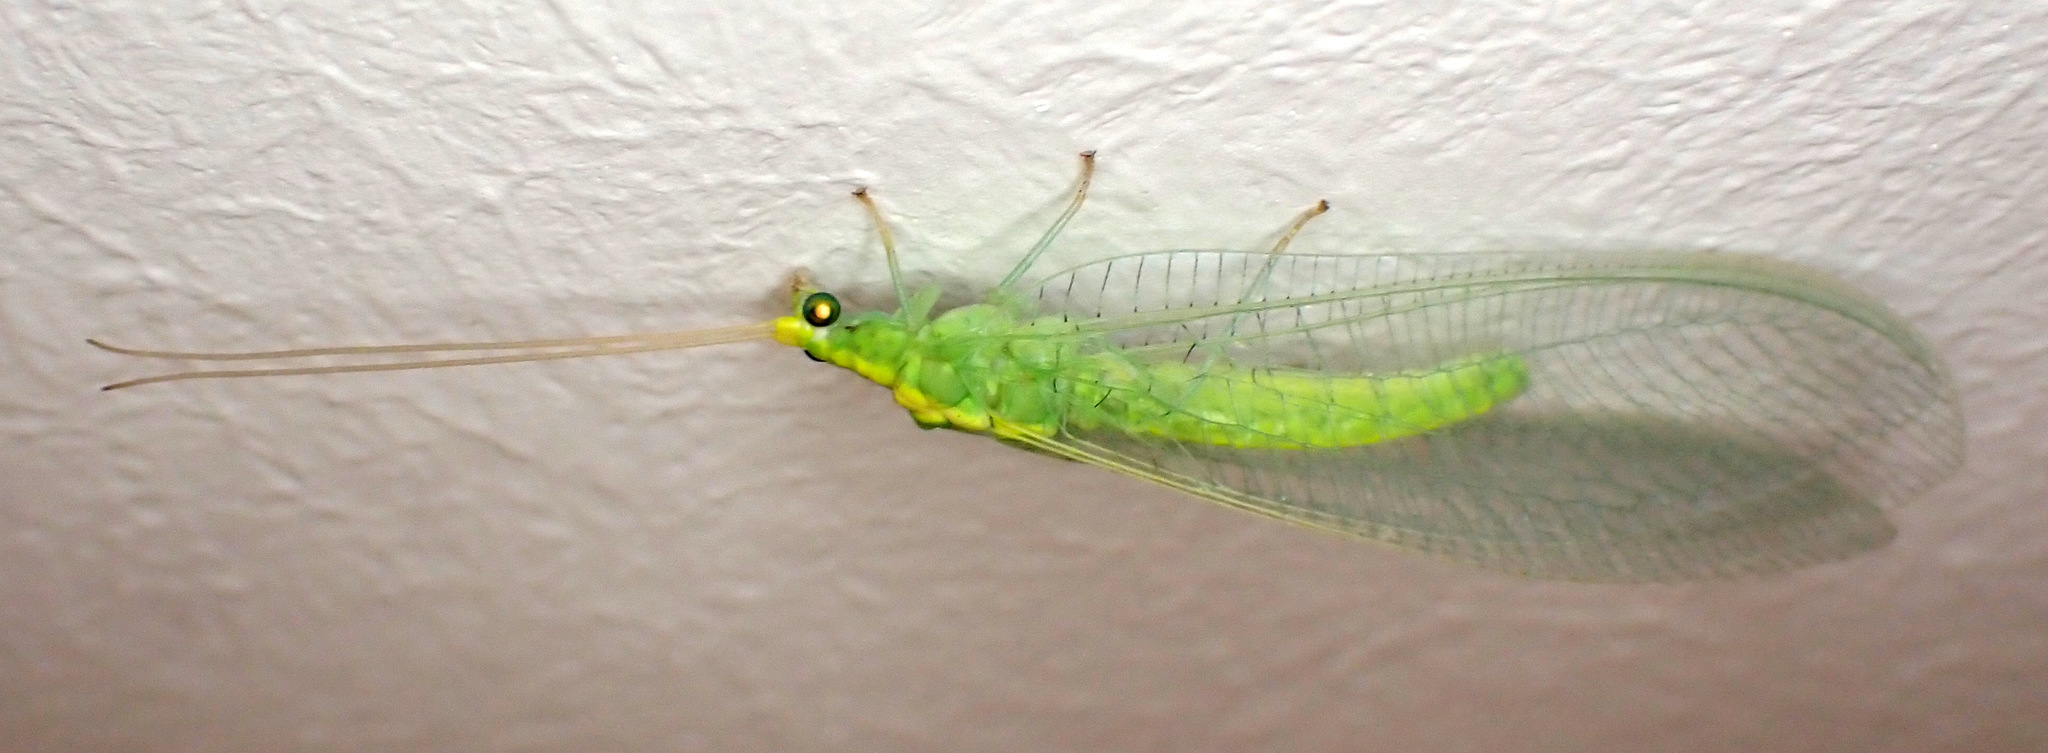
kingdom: Animalia
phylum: Arthropoda
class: Insecta
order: Neuroptera
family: Chrysopidae
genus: Nineta
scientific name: Nineta flava
